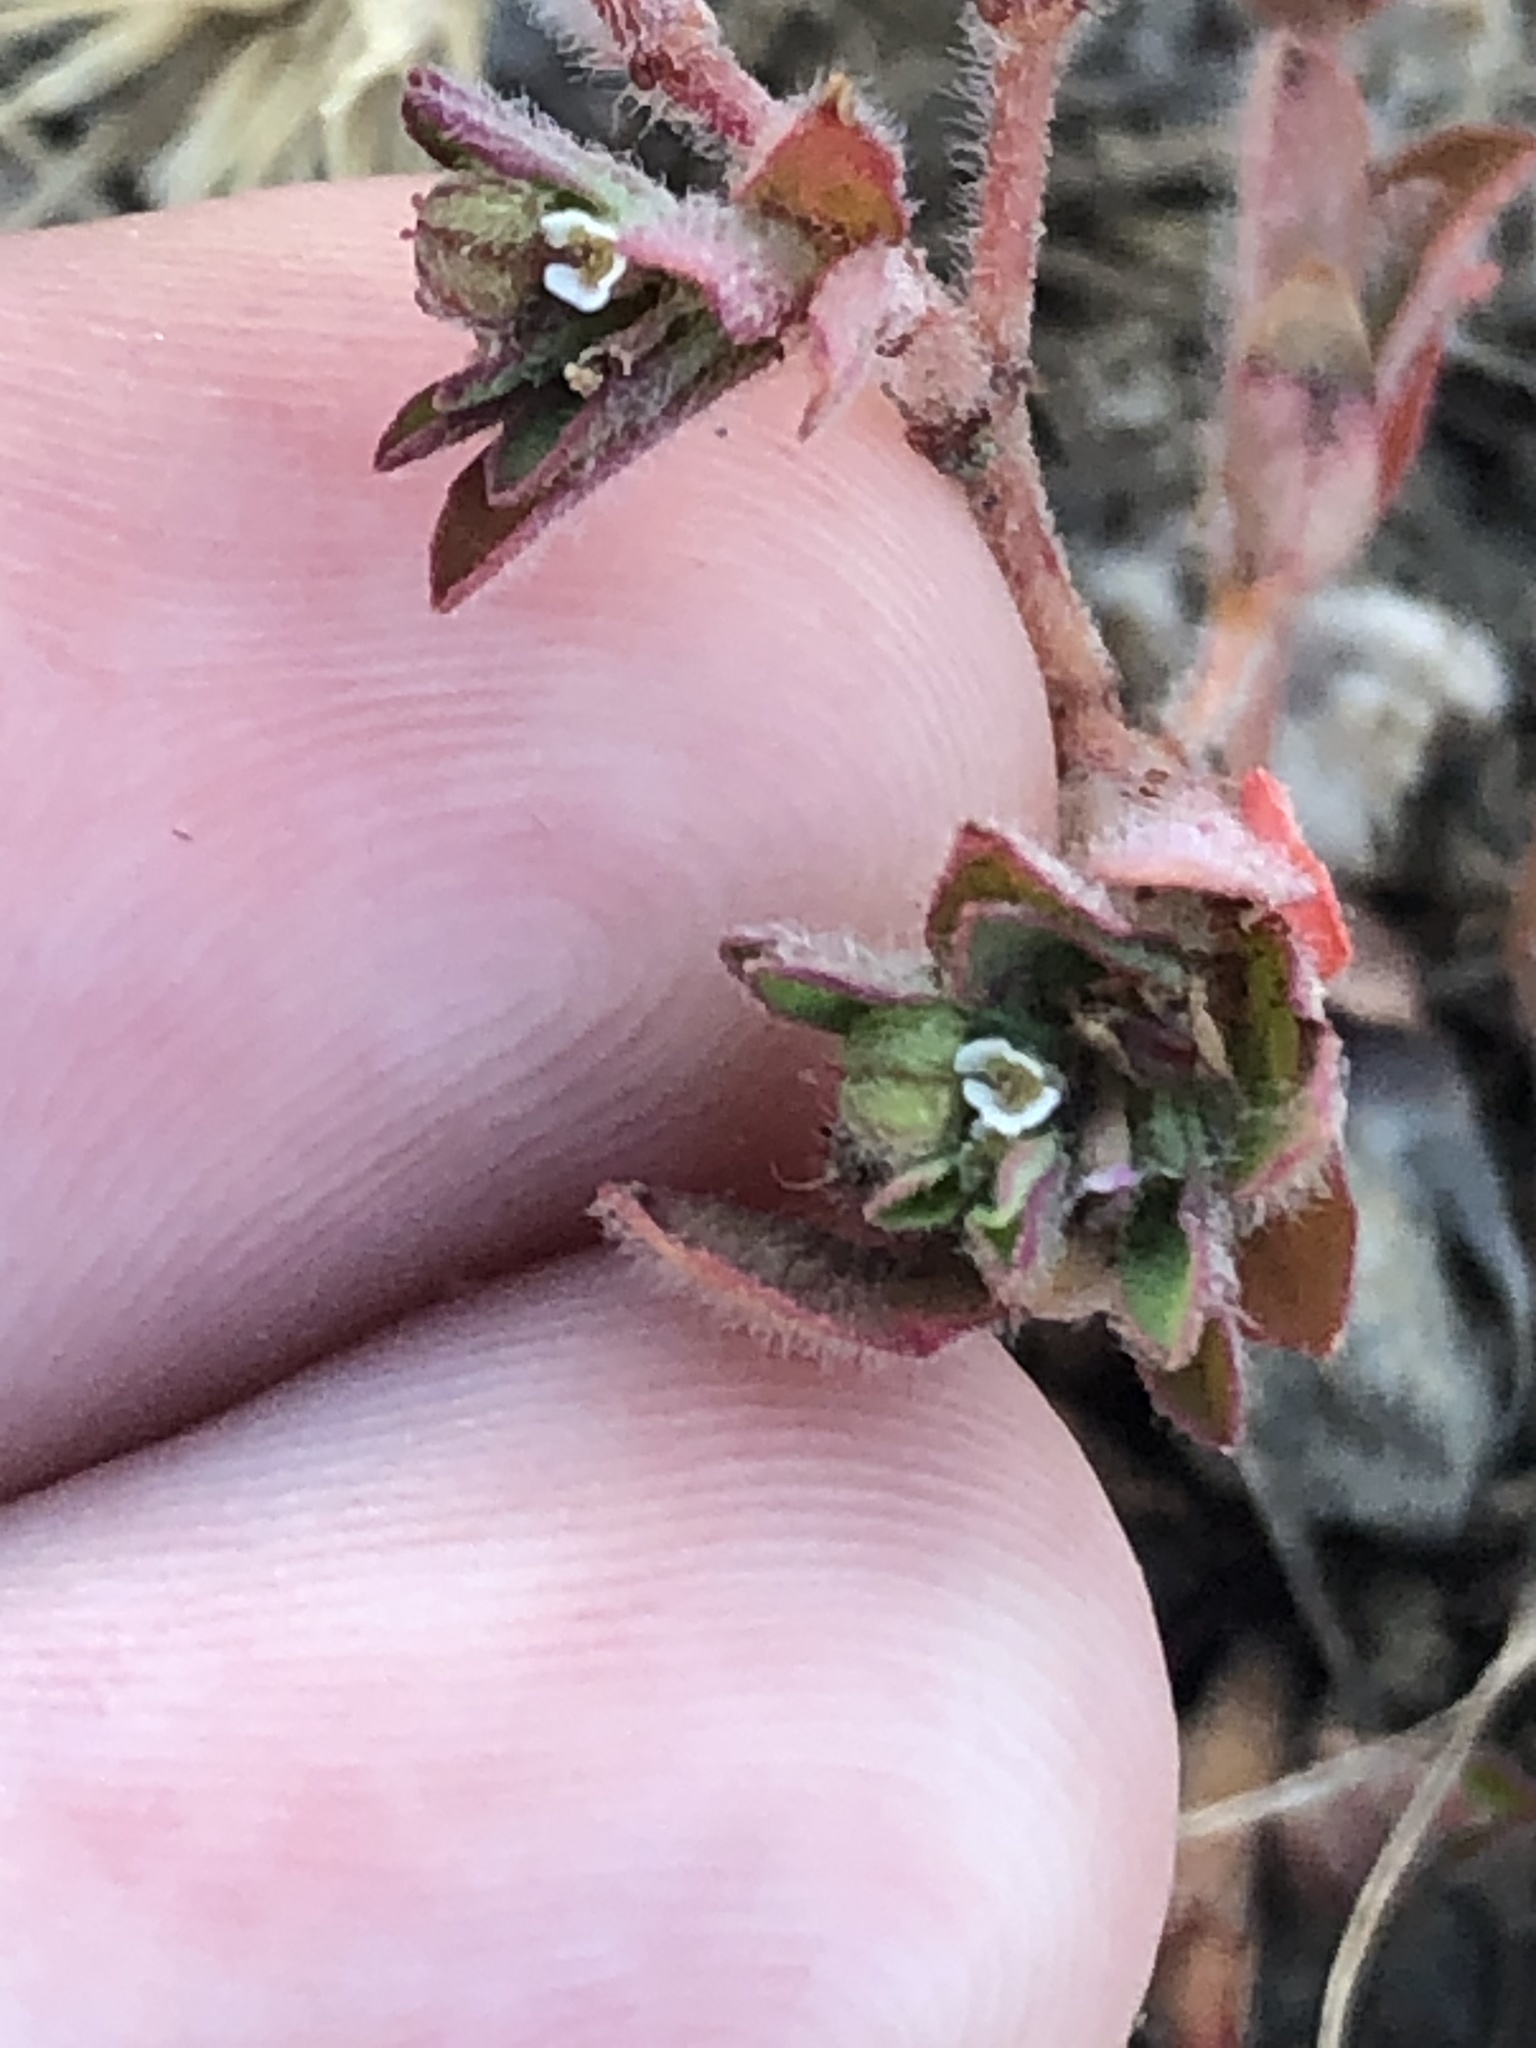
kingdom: Plantae
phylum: Tracheophyta
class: Magnoliopsida
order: Malpighiales
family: Euphorbiaceae
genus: Euphorbia
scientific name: Euphorbia maculata
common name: Spotted spurge
